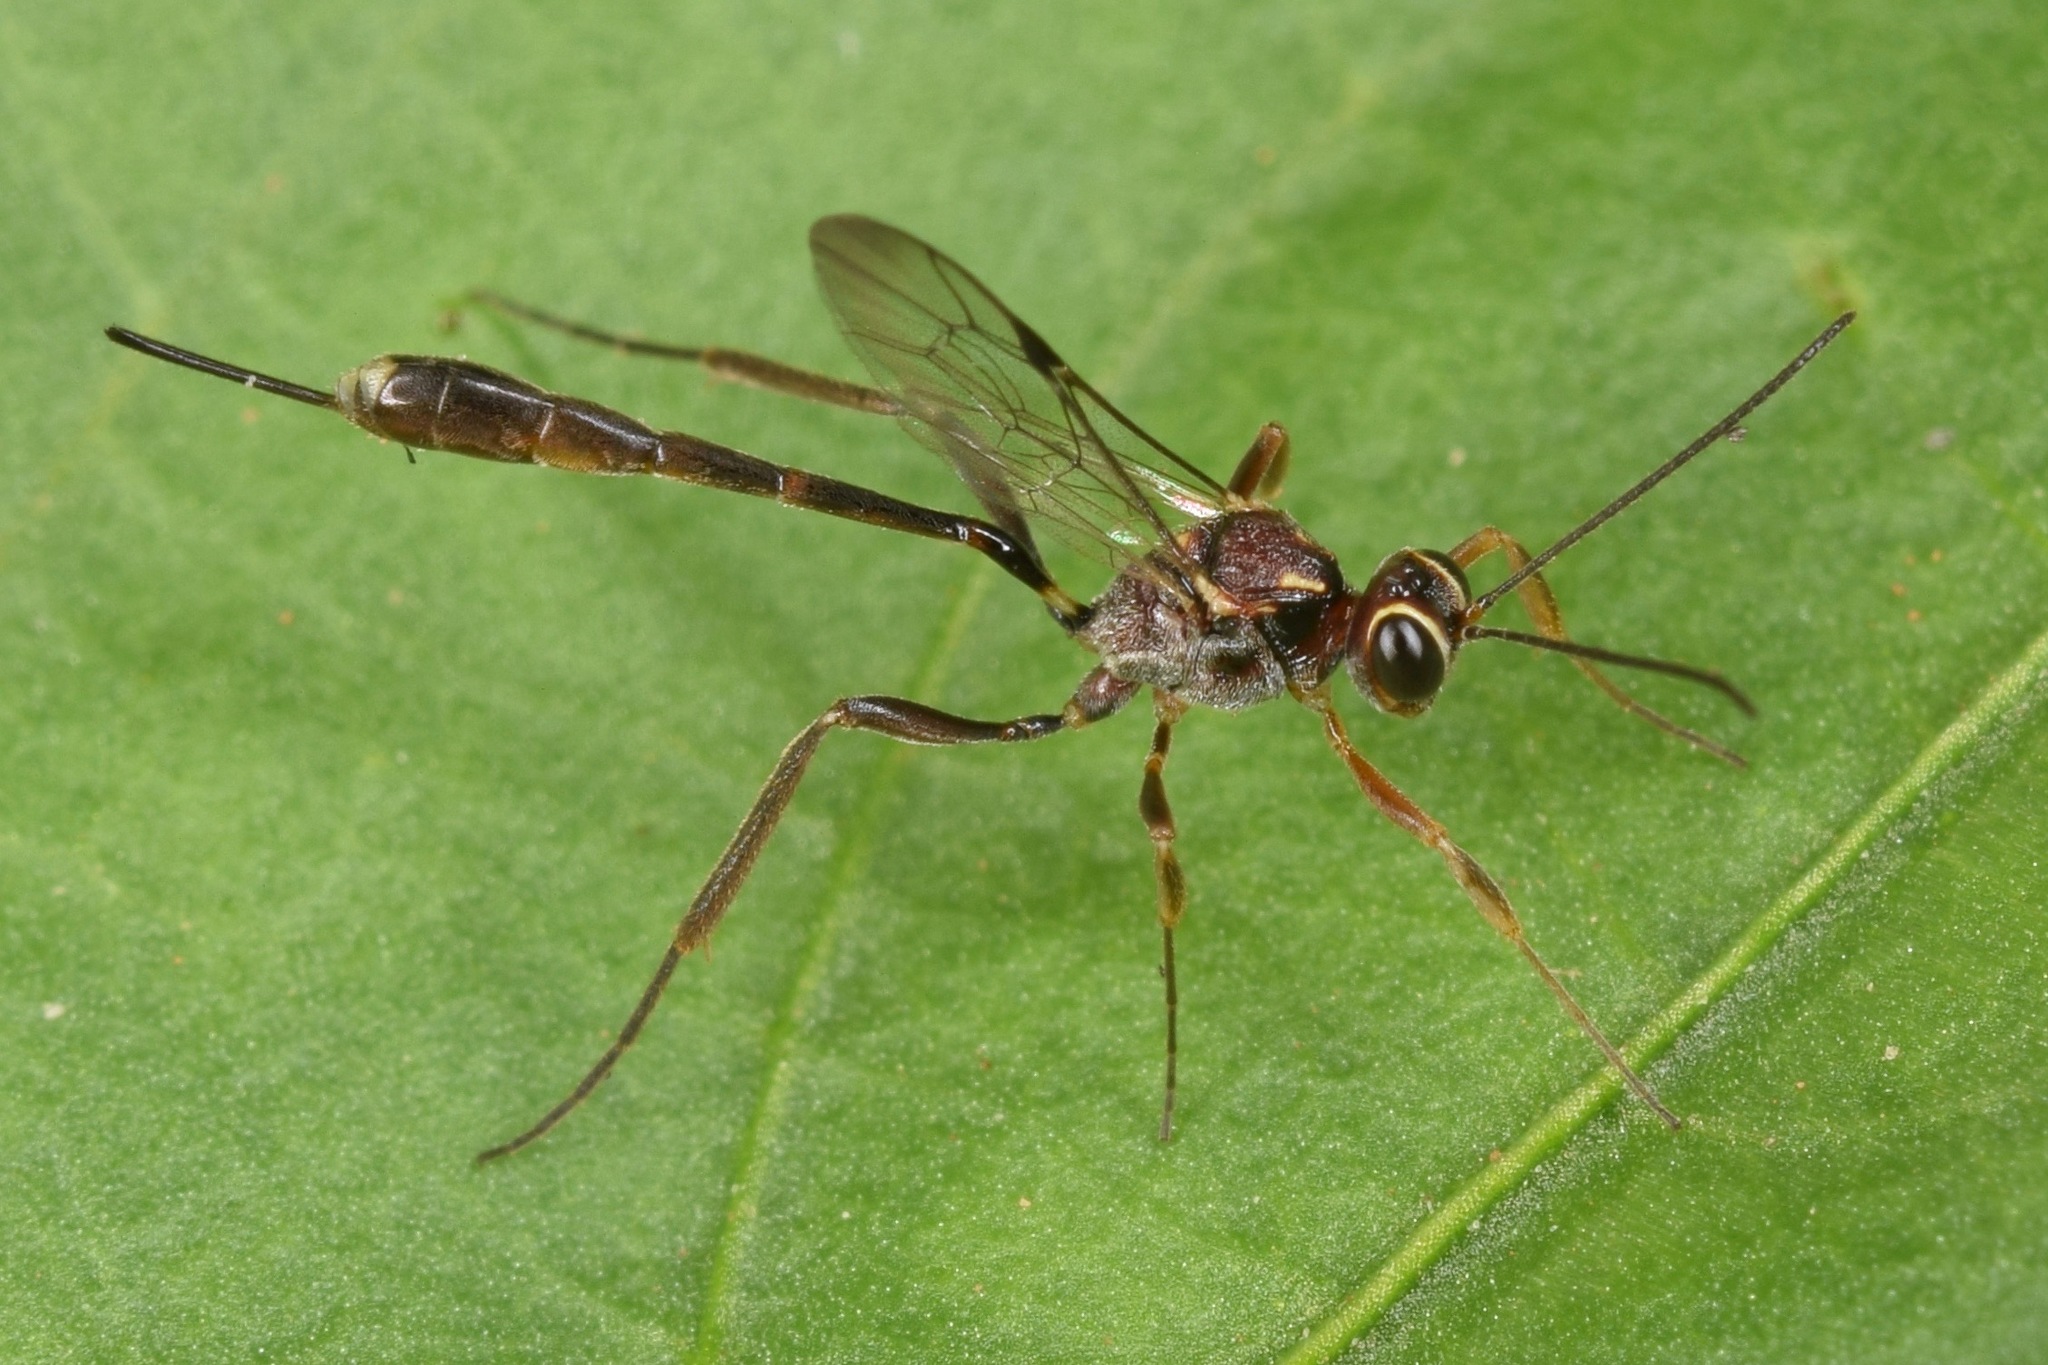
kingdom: Animalia
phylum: Arthropoda
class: Insecta
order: Hymenoptera
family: Ichneumonidae
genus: Anomalon
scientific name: Anomalon
